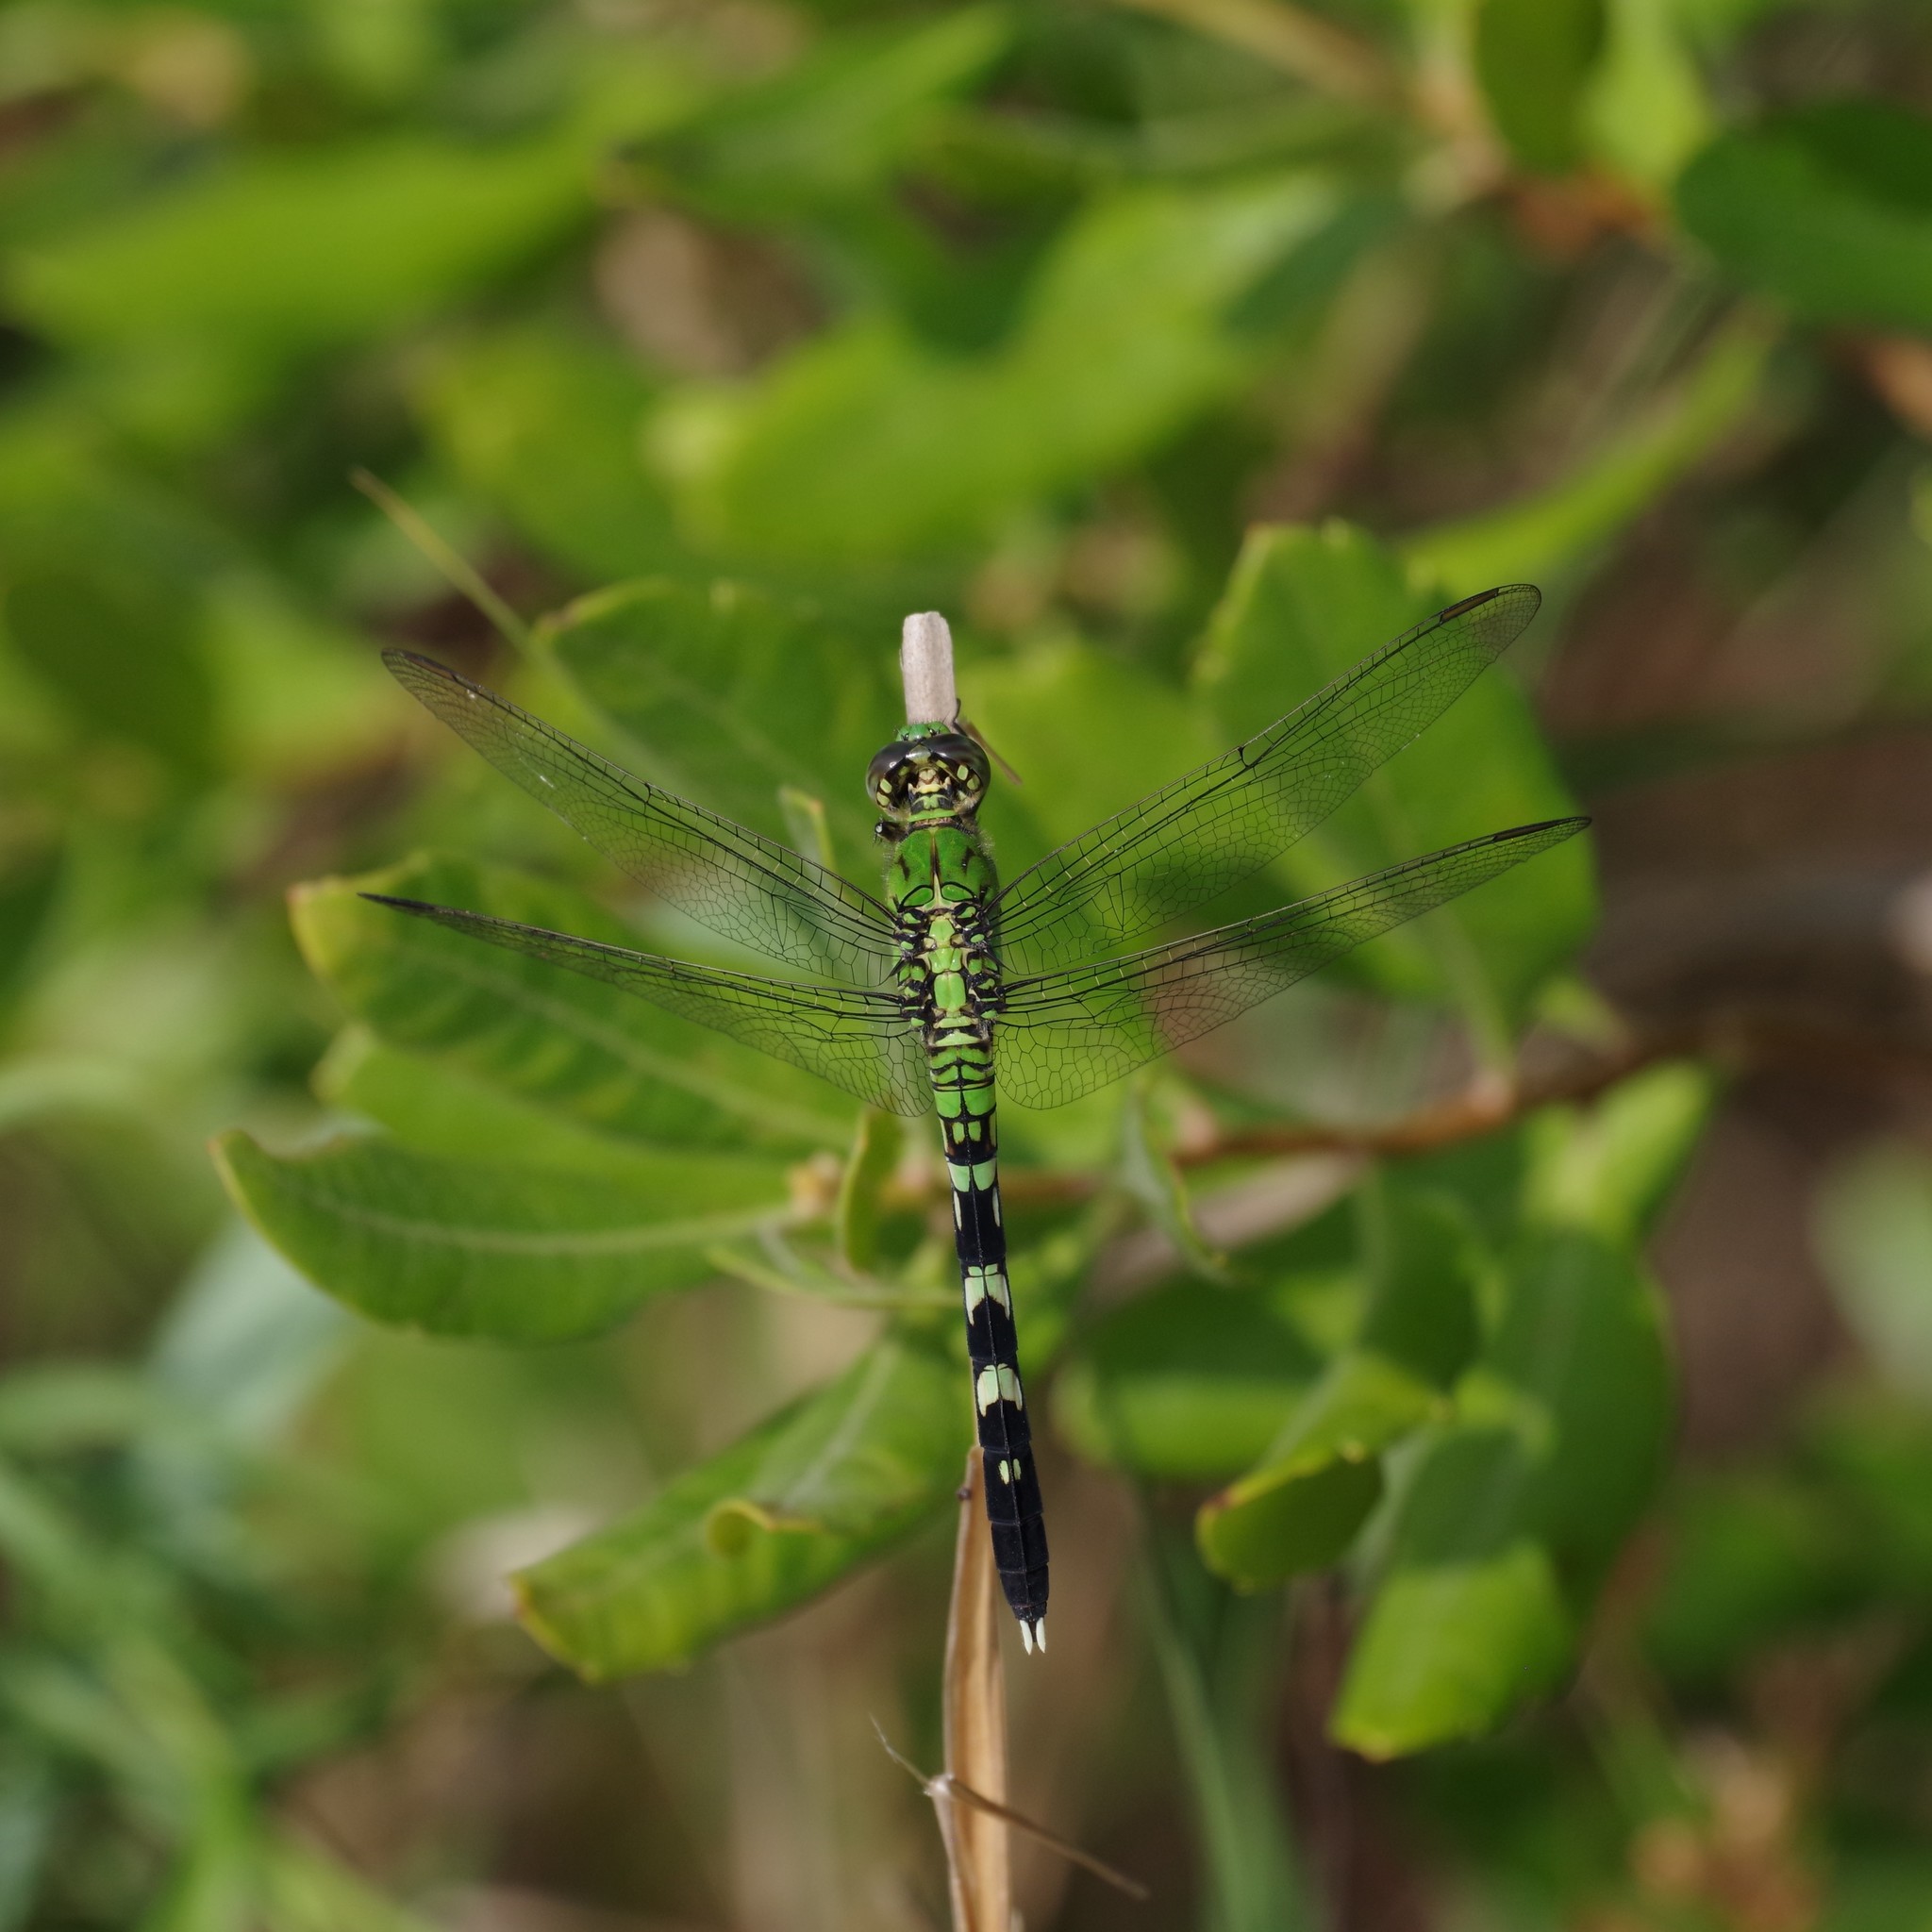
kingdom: Animalia
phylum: Arthropoda
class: Insecta
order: Odonata
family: Libellulidae
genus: Erythemis
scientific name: Erythemis simplicicollis
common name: Eastern pondhawk
